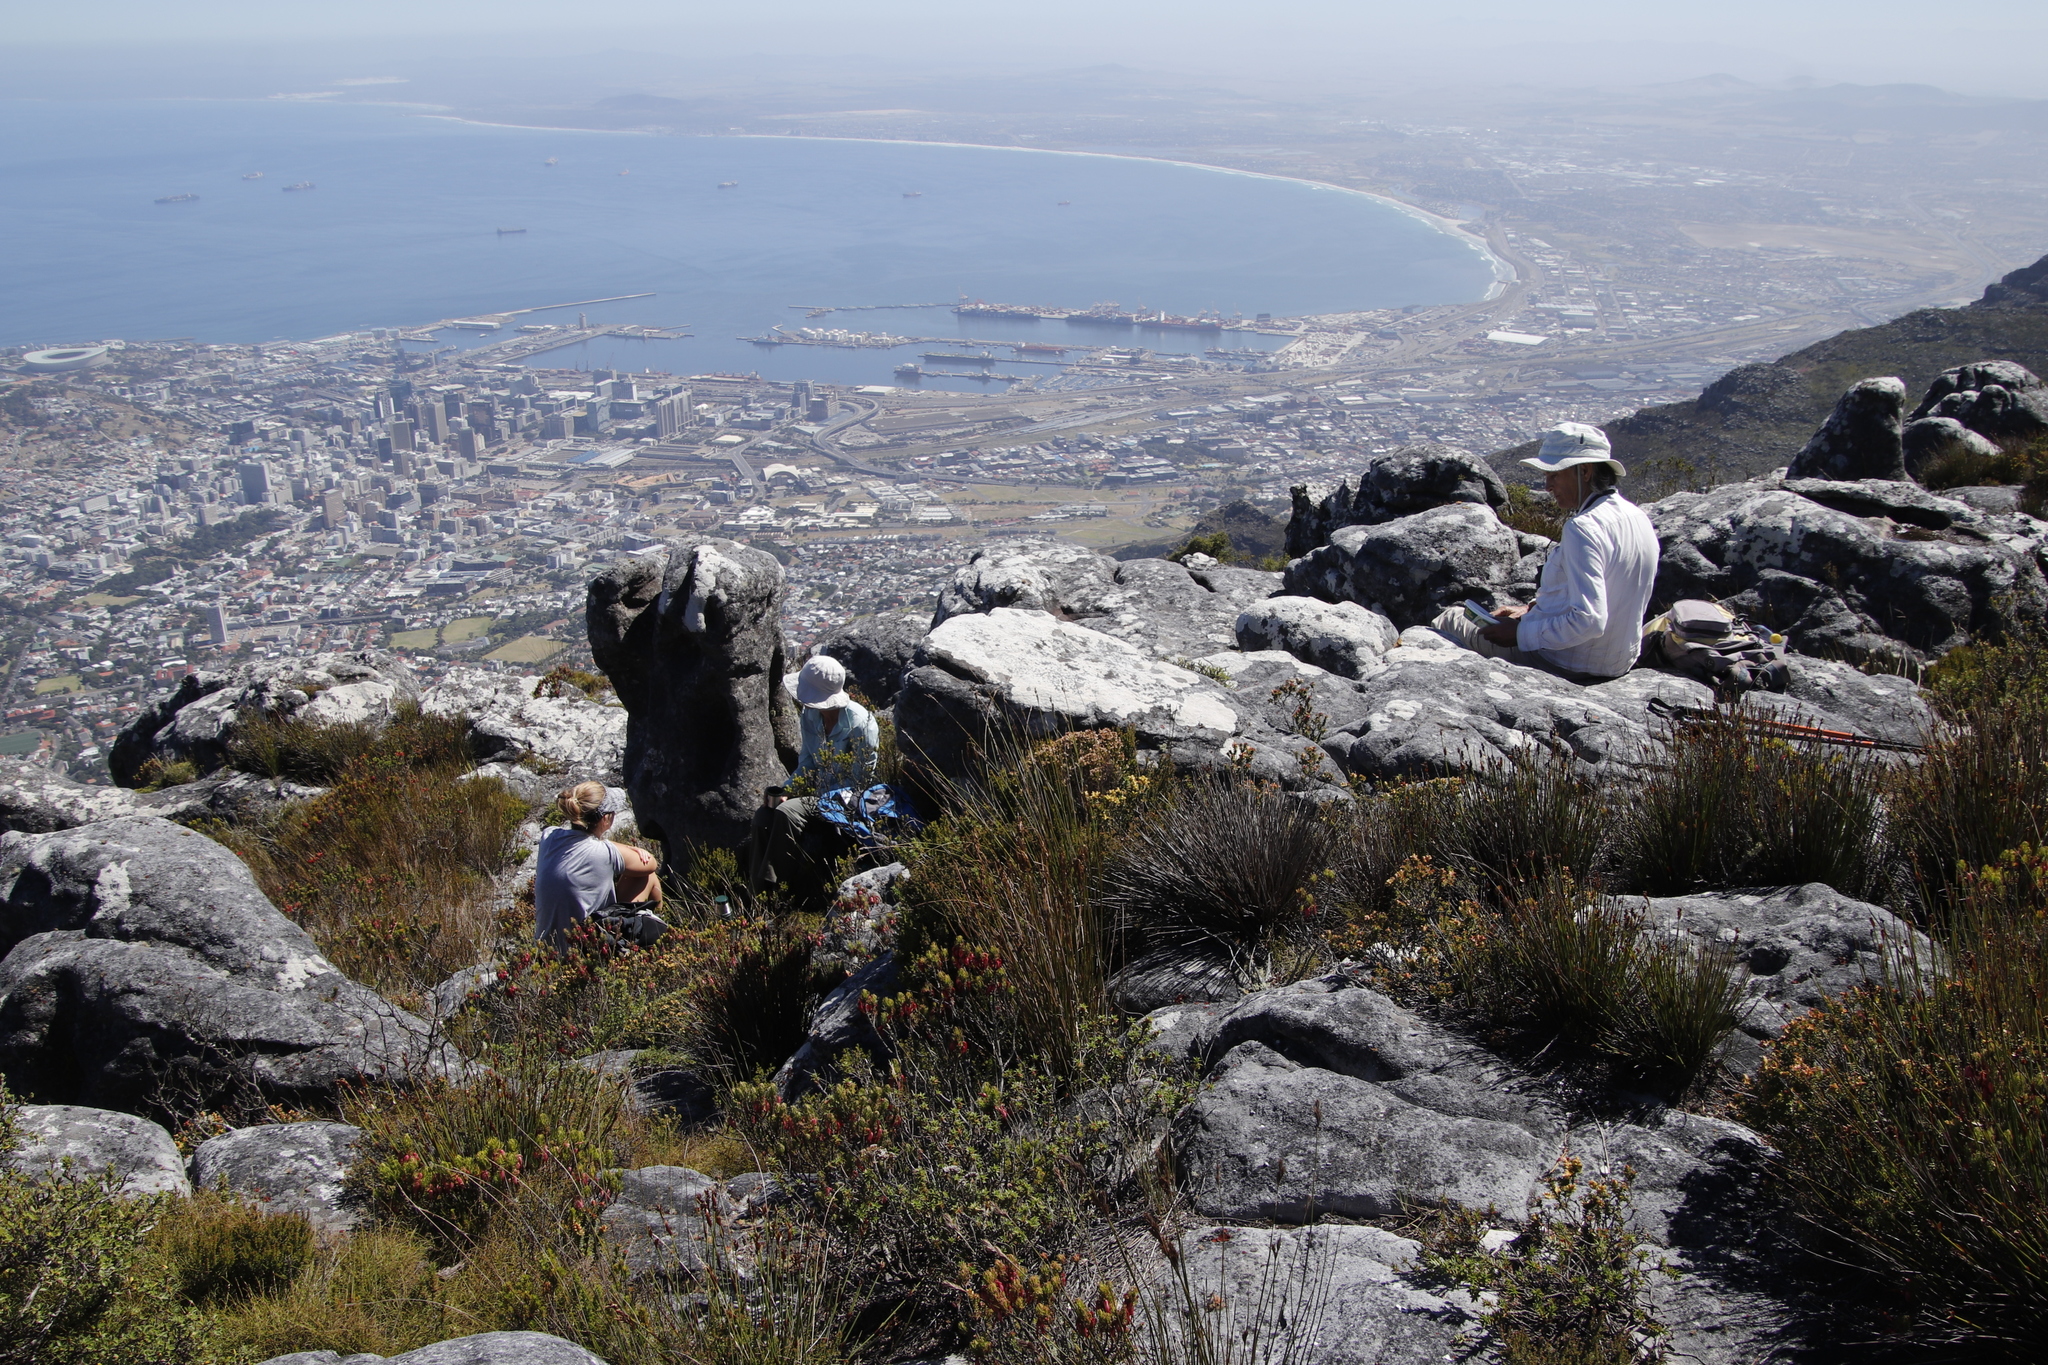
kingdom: Plantae
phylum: Tracheophyta
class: Magnoliopsida
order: Ericales
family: Ericaceae
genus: Erica
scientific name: Erica plukenetii
